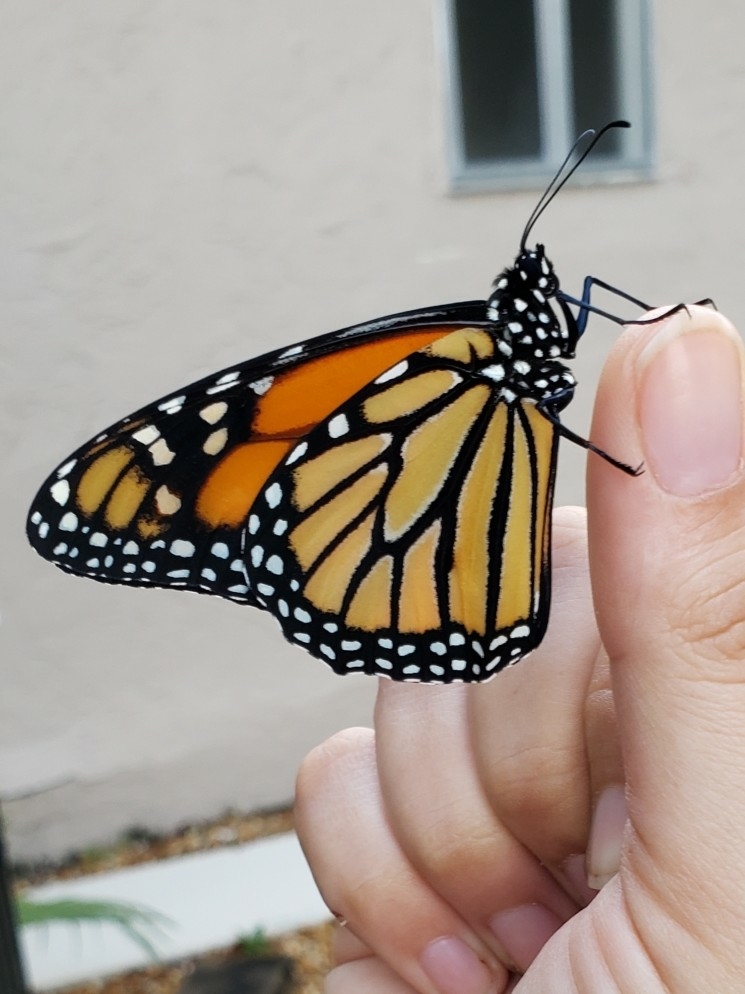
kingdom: Animalia
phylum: Arthropoda
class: Insecta
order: Lepidoptera
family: Nymphalidae
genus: Danaus
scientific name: Danaus plexippus
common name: Monarch
